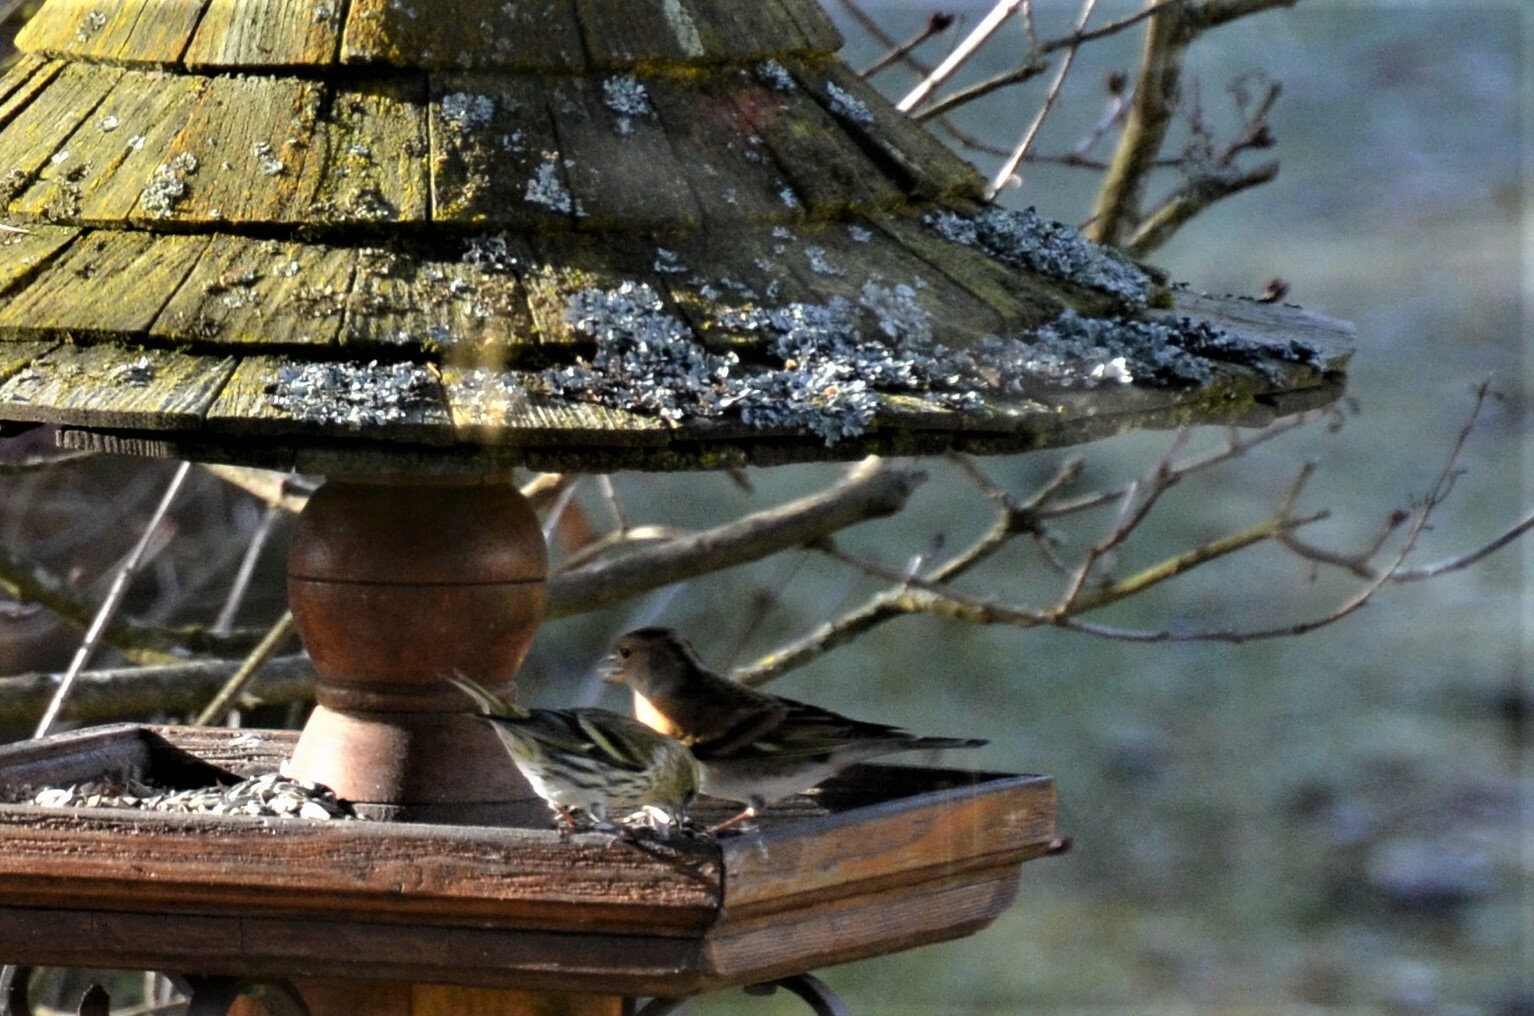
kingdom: Animalia
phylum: Chordata
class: Aves
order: Passeriformes
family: Fringillidae
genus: Spinus
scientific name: Spinus spinus
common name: Eurasian siskin
